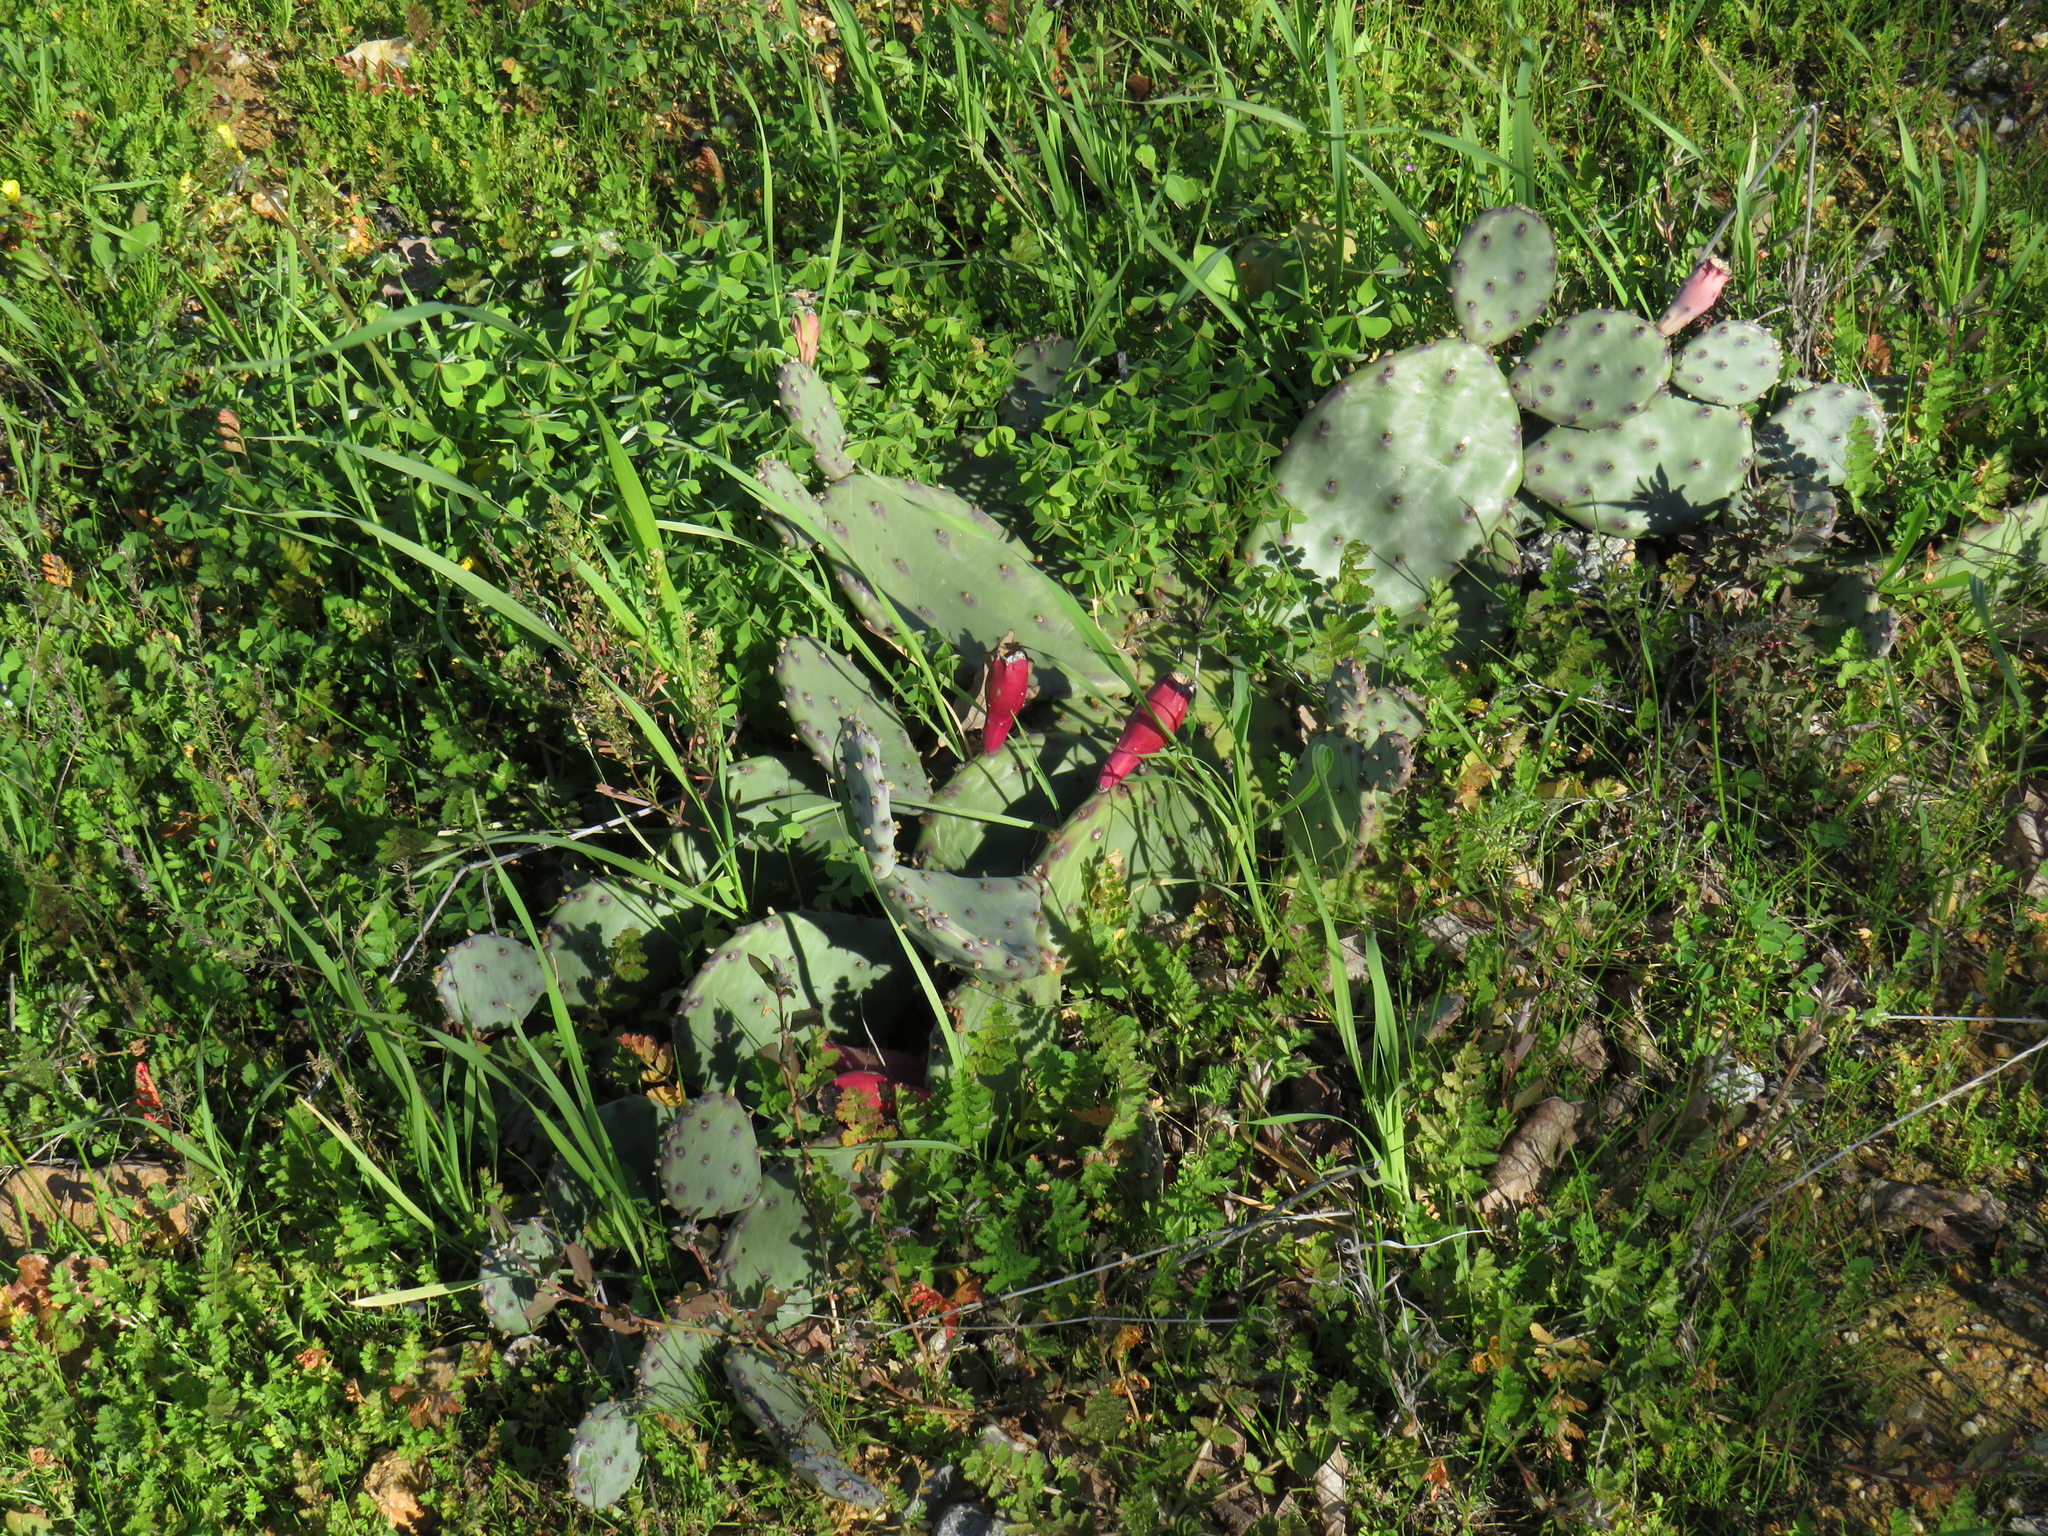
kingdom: Plantae
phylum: Tracheophyta
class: Magnoliopsida
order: Caryophyllales
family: Cactaceae
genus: Opuntia
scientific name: Opuntia humifusa
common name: Eastern prickly-pear
